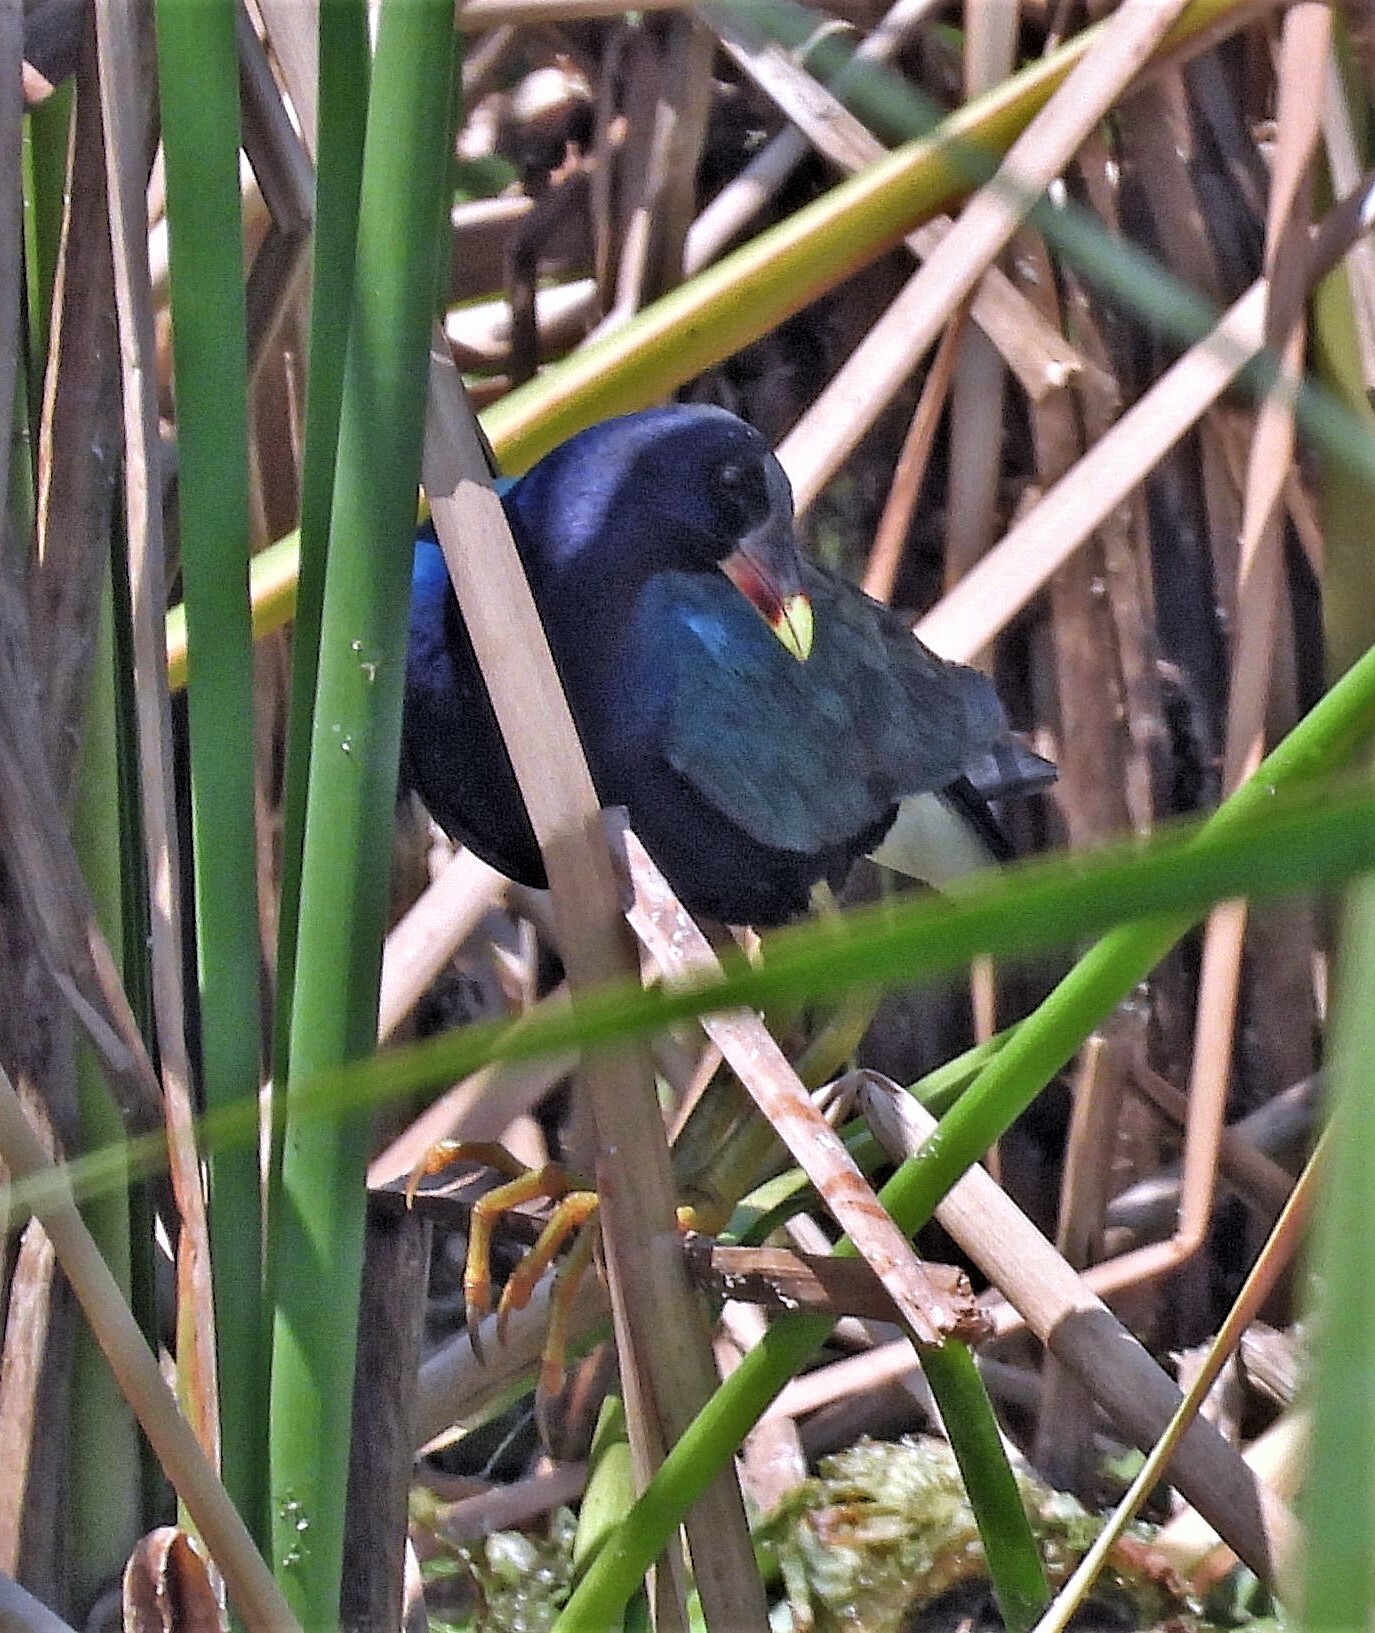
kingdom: Animalia
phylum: Chordata
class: Aves
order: Gruiformes
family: Rallidae
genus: Porphyrio
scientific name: Porphyrio martinica
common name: Purple gallinule
